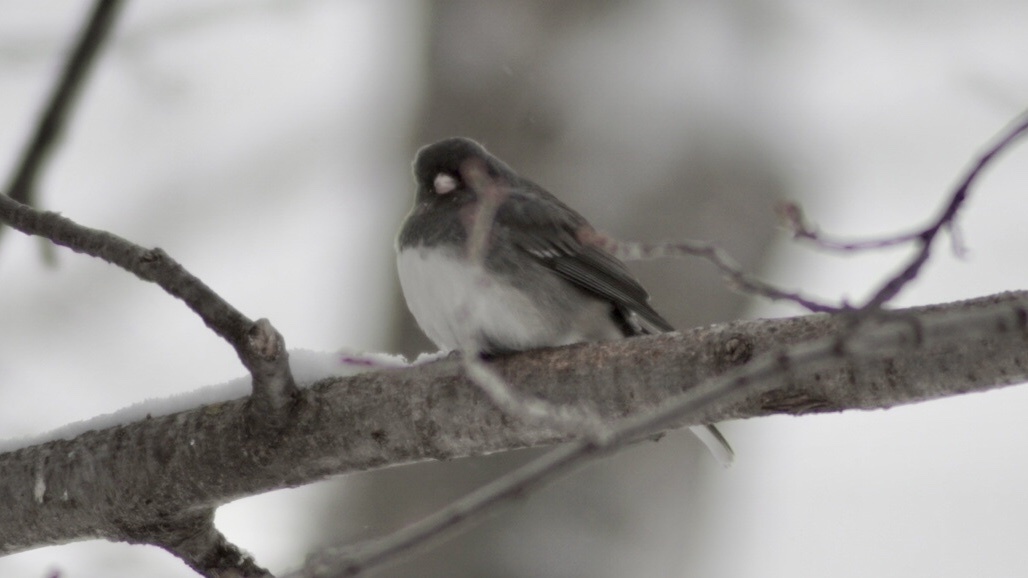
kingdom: Animalia
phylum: Chordata
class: Aves
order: Passeriformes
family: Passerellidae
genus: Junco
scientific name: Junco hyemalis
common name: Dark-eyed junco
